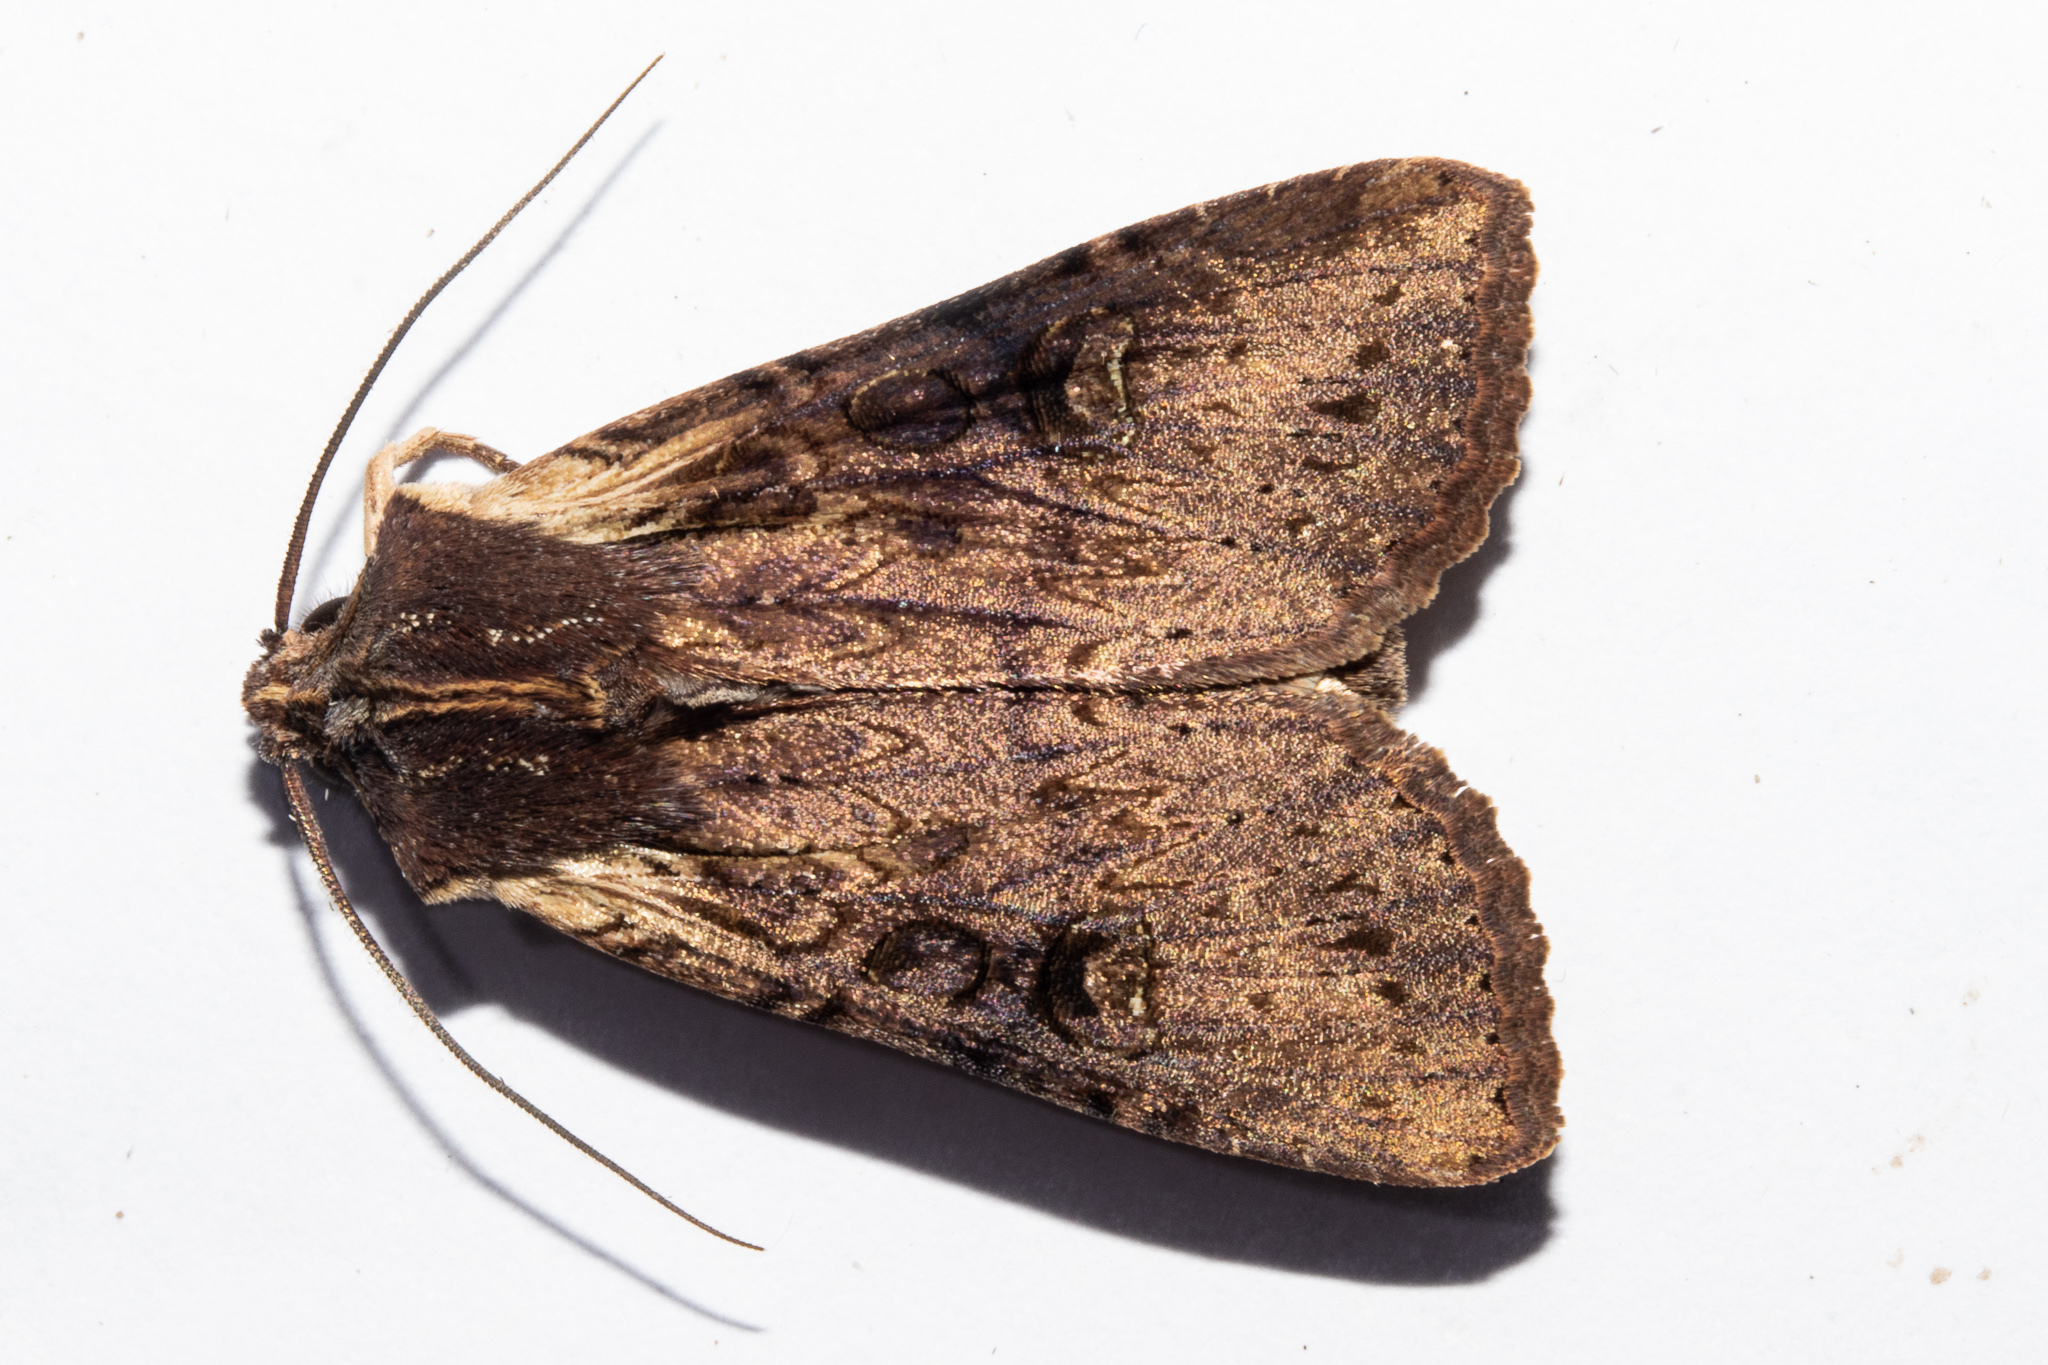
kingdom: Animalia
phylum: Arthropoda
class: Insecta
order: Lepidoptera
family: Noctuidae
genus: Ichneutica
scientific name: Ichneutica omoplaca
